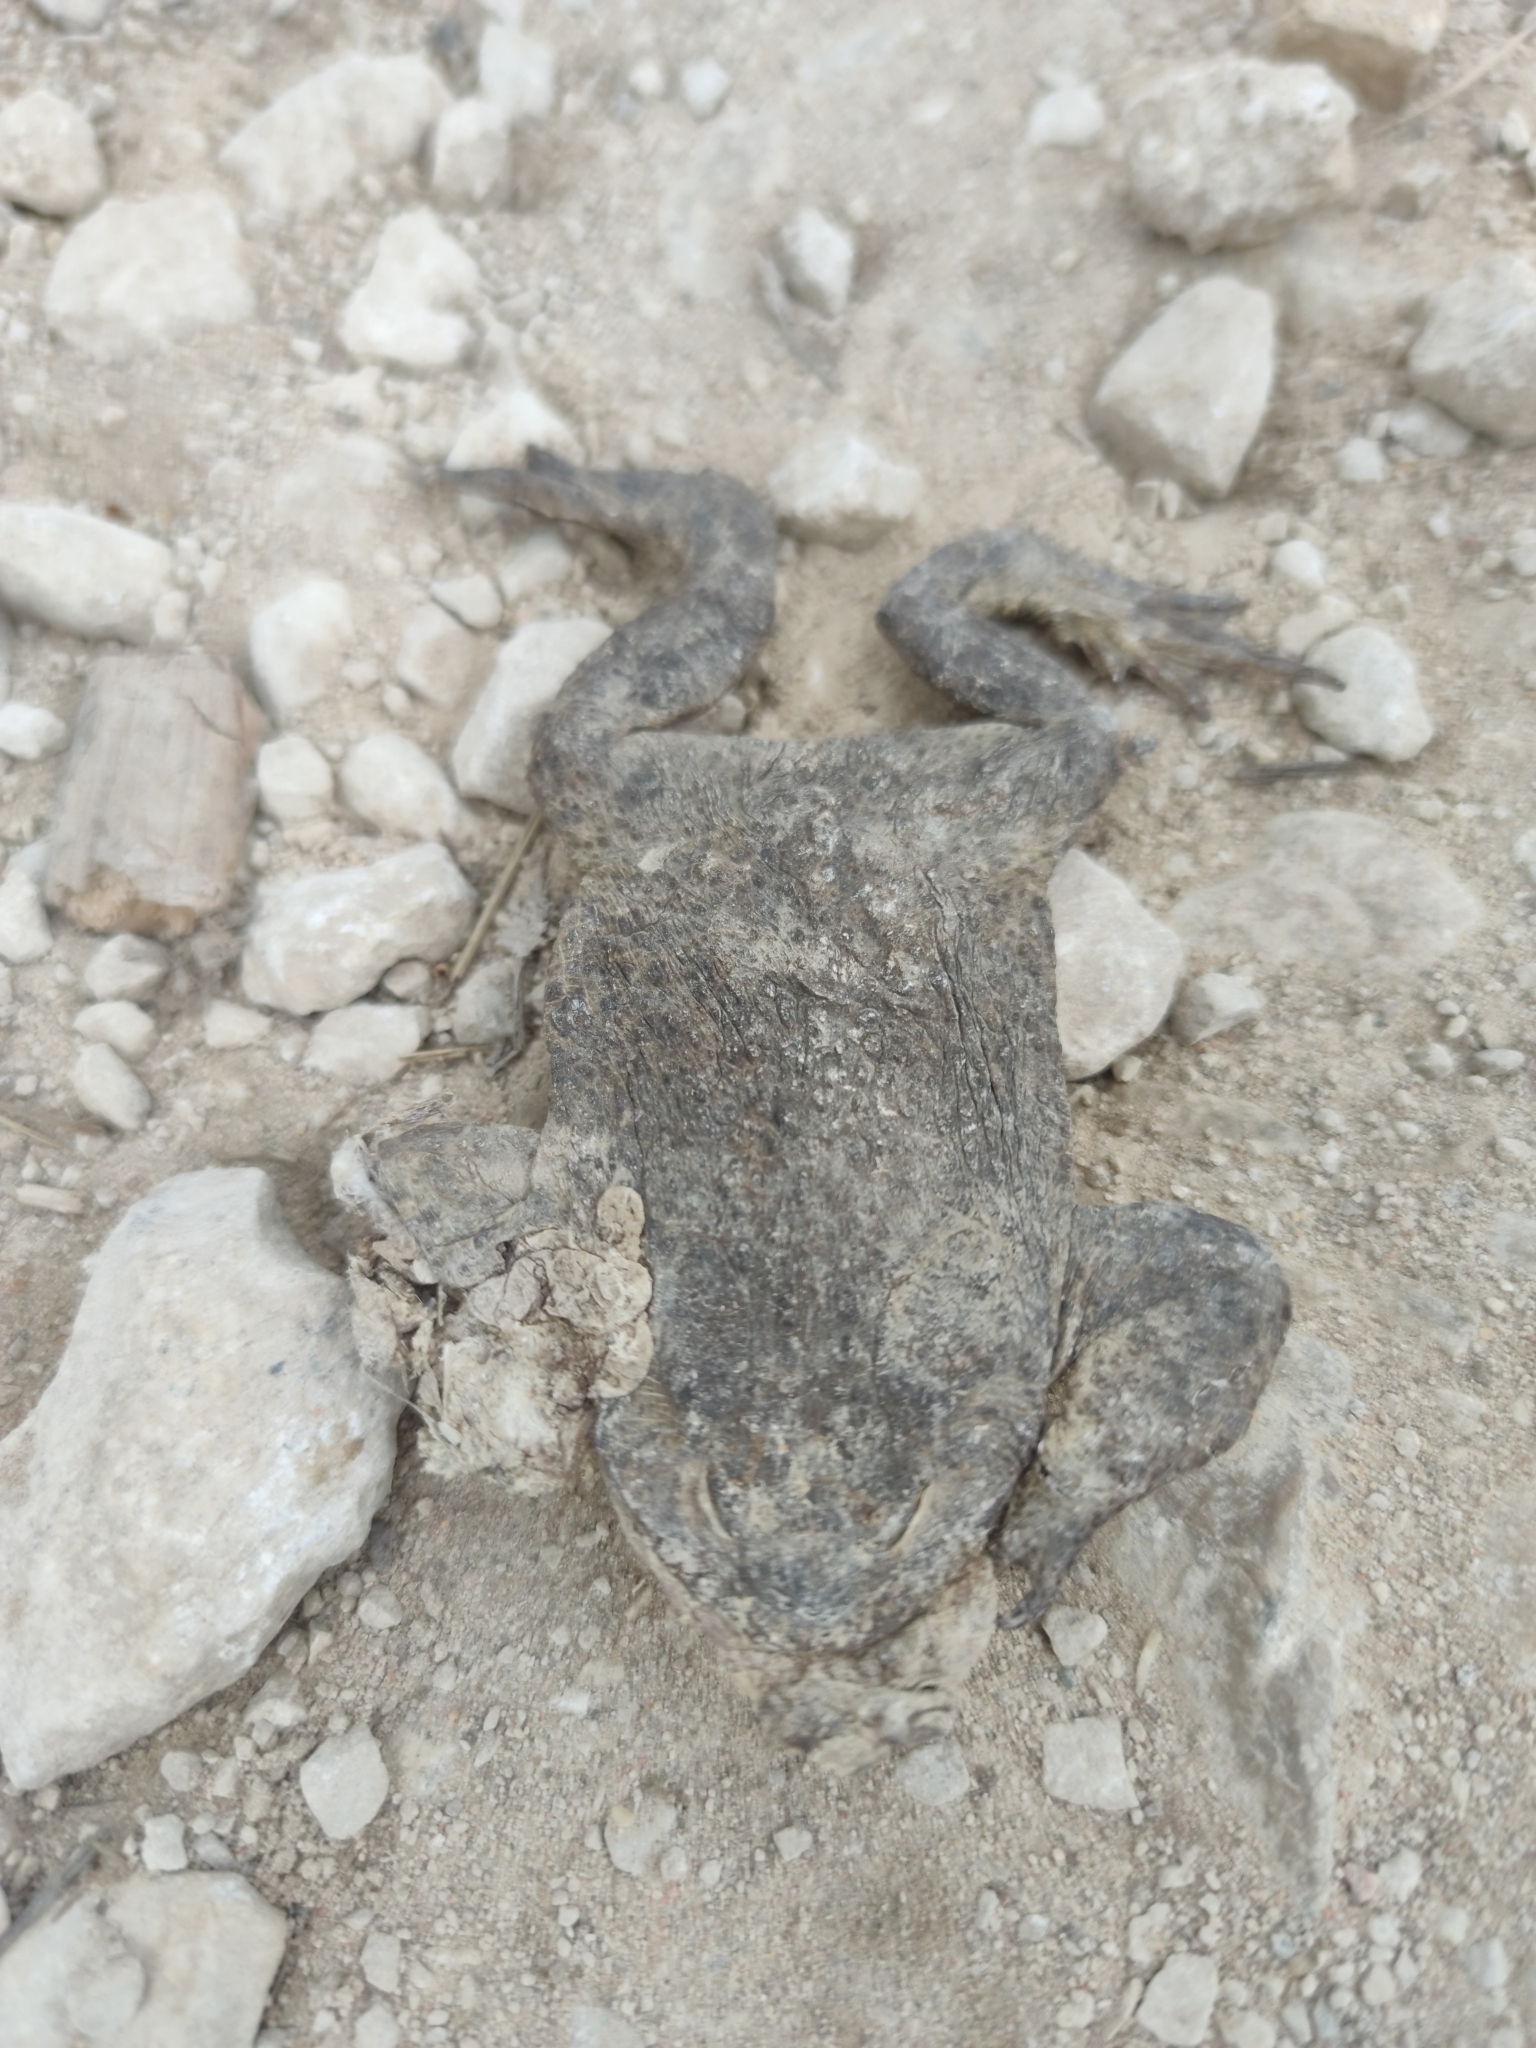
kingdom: Animalia
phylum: Chordata
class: Amphibia
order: Anura
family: Bufonidae
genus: Bufo
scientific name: Bufo bufo
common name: Common toad
